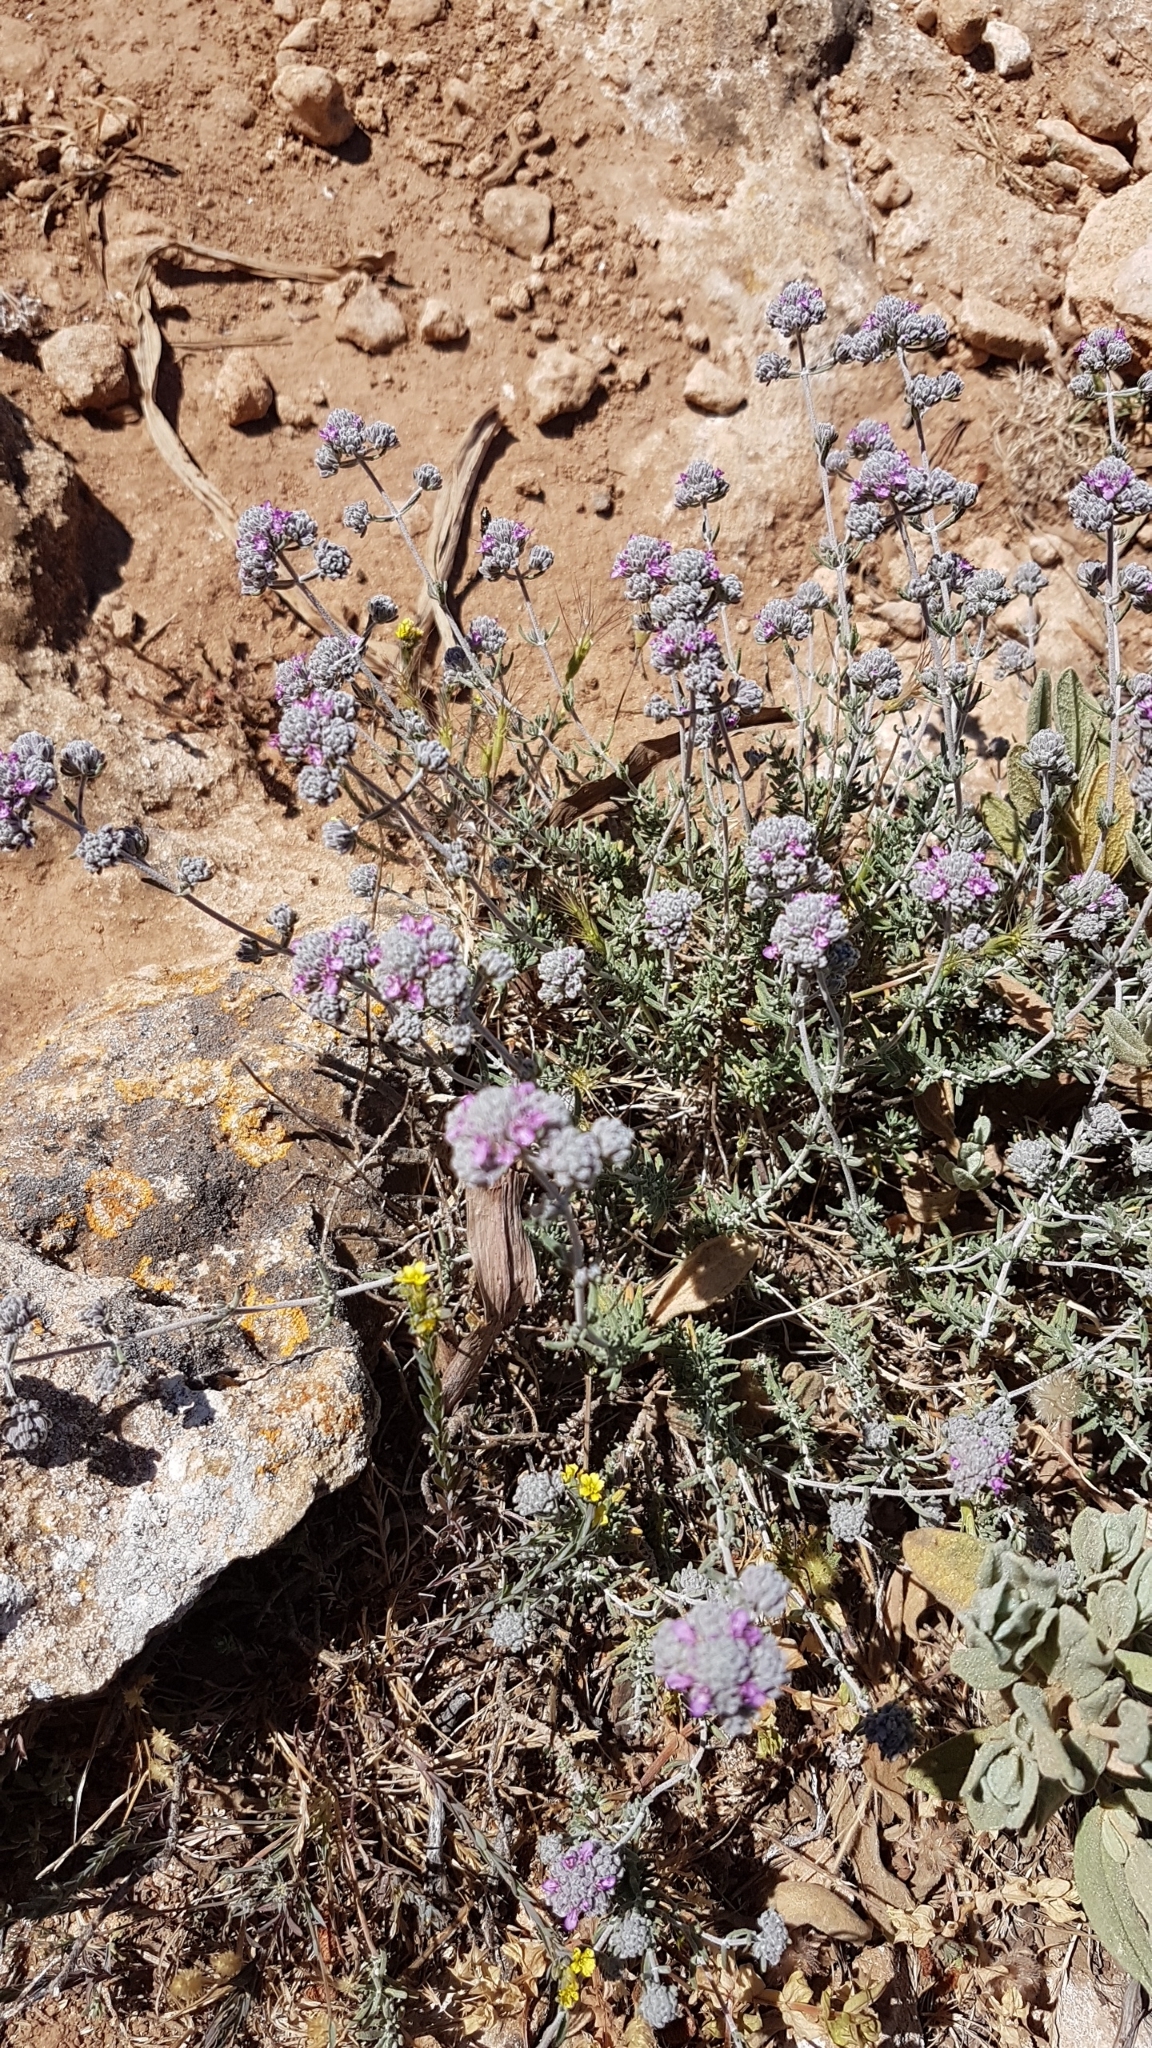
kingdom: Plantae
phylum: Tracheophyta
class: Magnoliopsida
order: Lamiales
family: Lamiaceae
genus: Teucrium
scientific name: Teucrium capitatum
